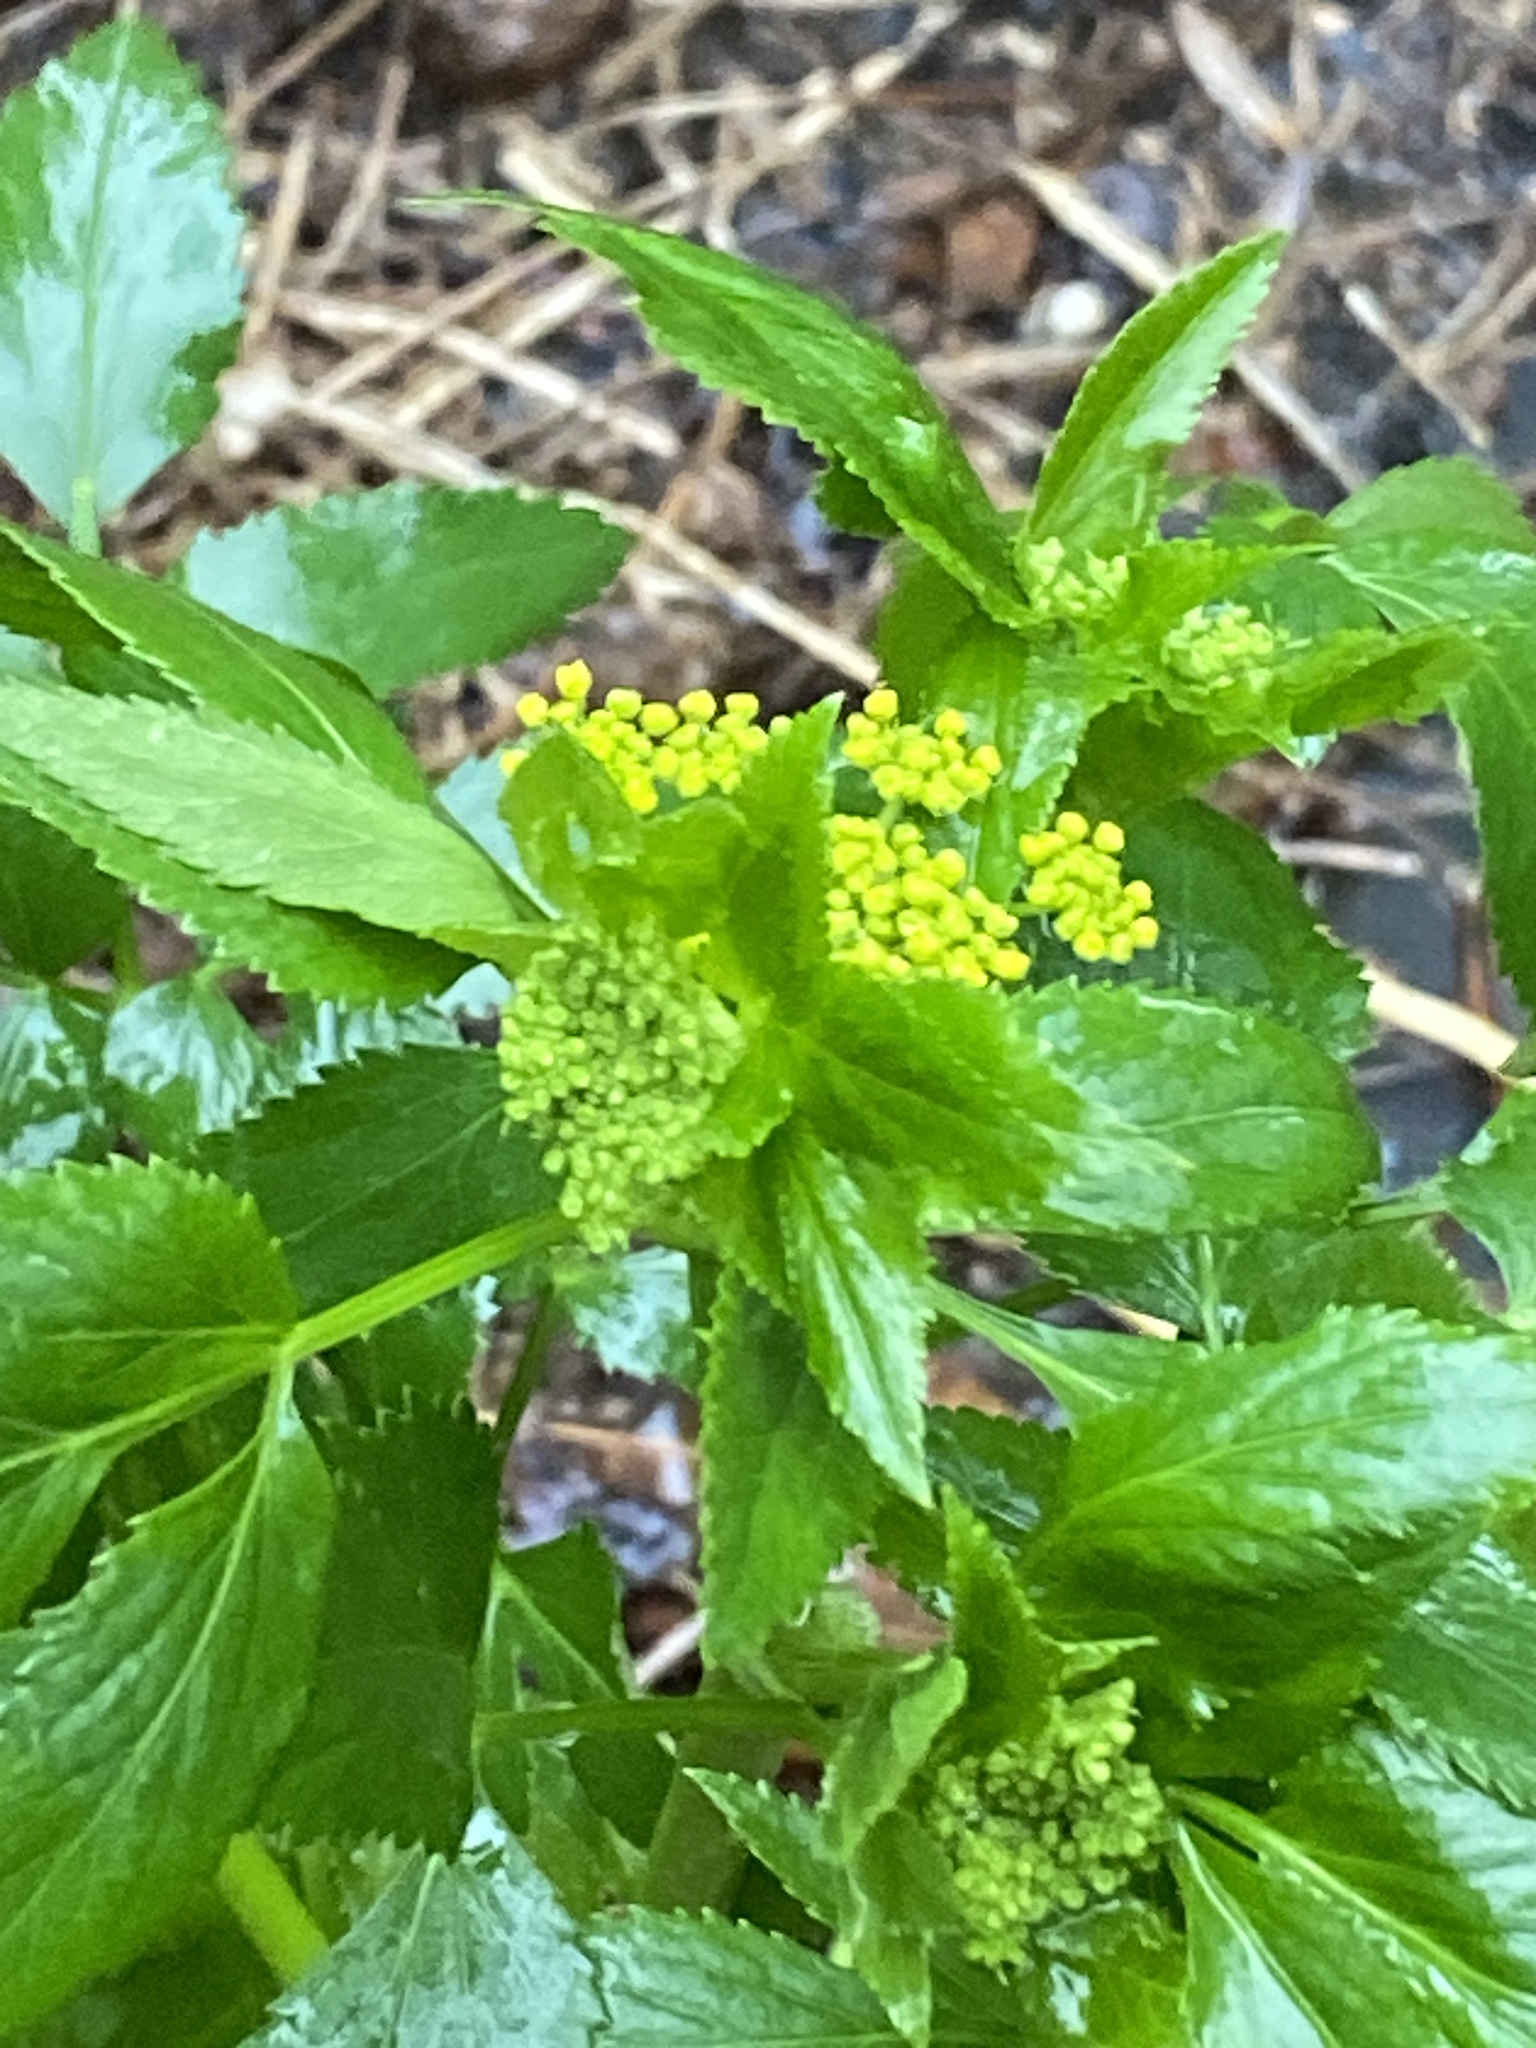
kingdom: Plantae
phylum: Tracheophyta
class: Magnoliopsida
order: Apiales
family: Apiaceae
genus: Zizia
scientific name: Zizia aurea
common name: Golden alexanders
